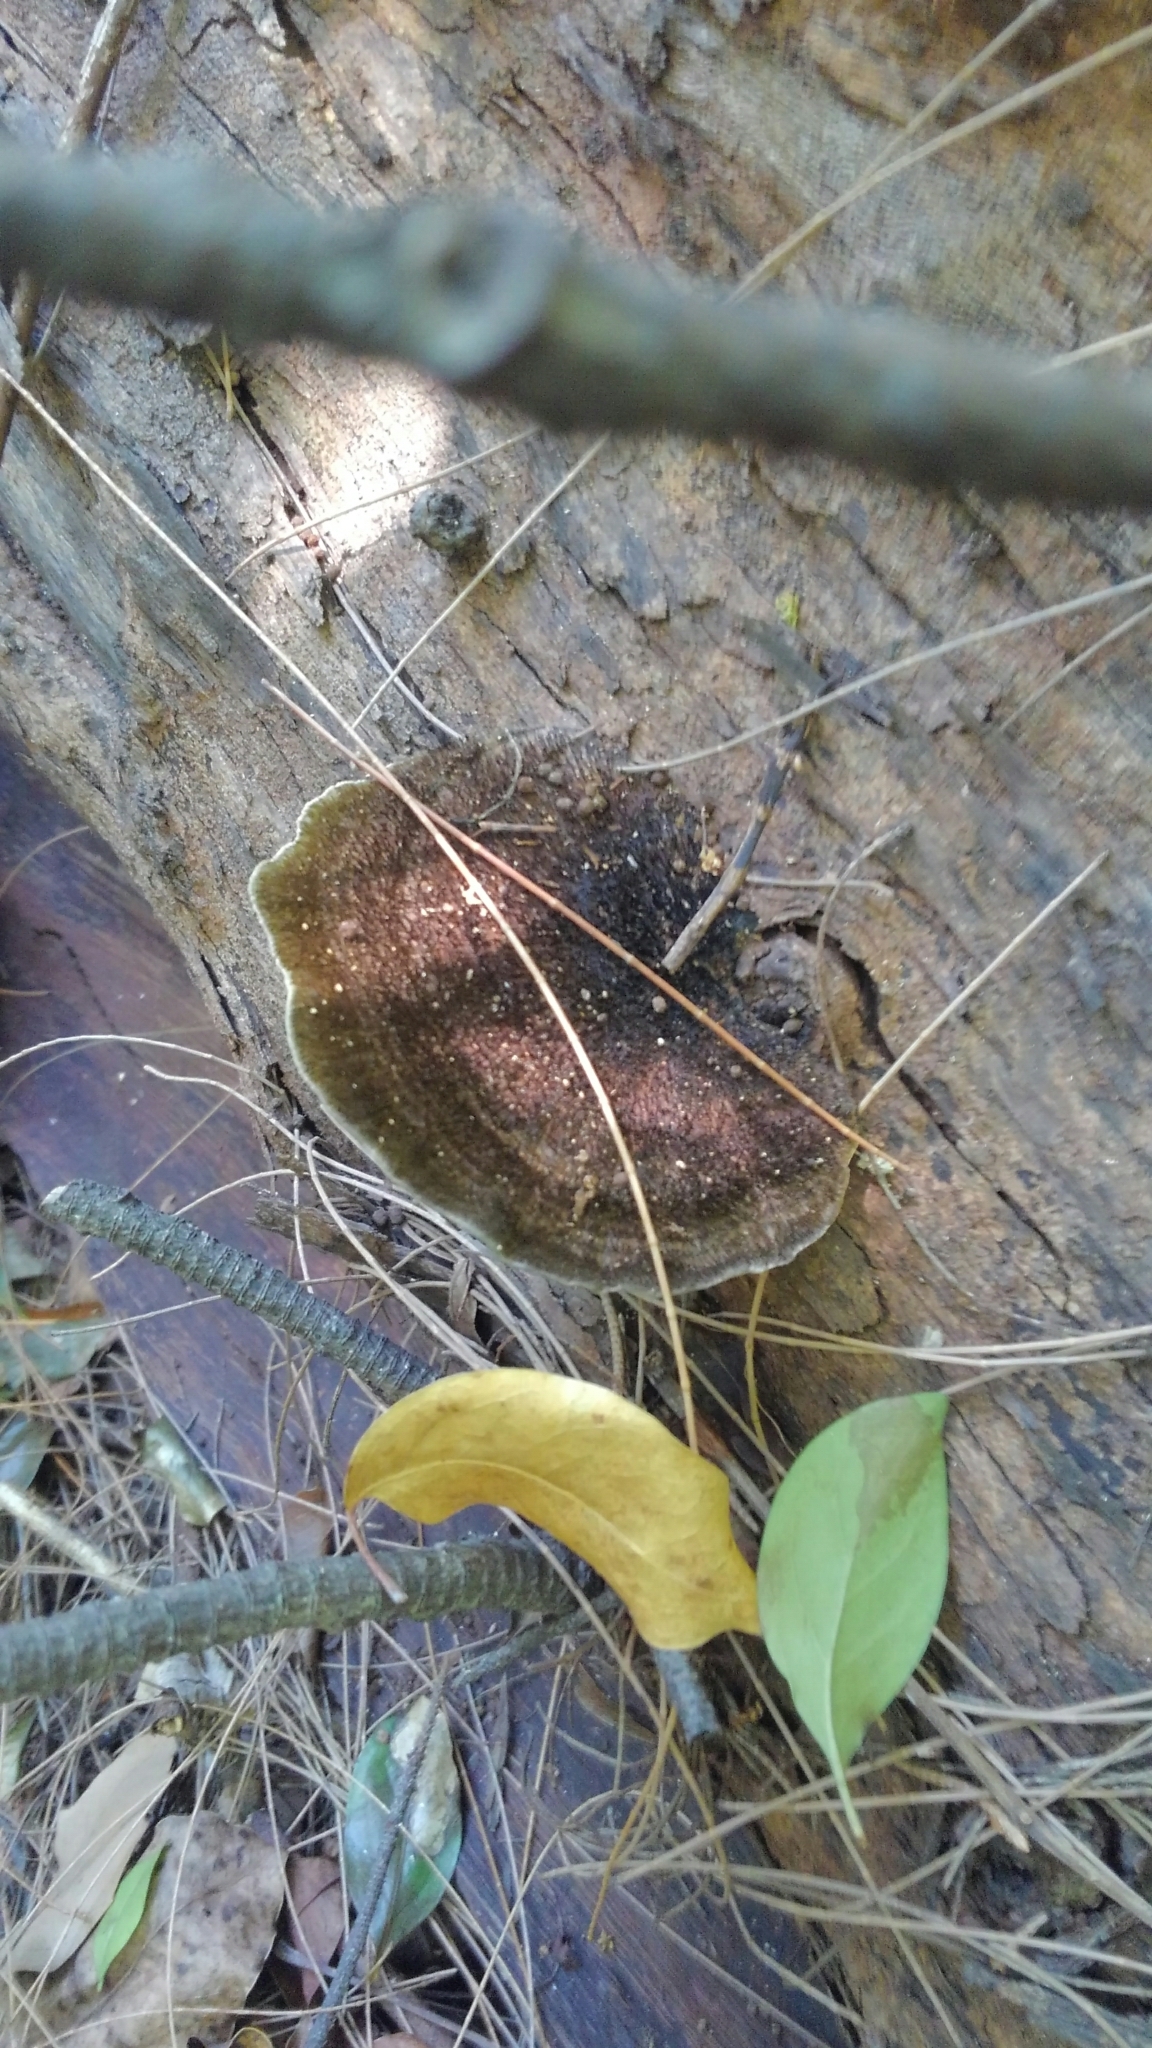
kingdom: Fungi
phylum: Basidiomycota
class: Agaricomycetes
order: Polyporales
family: Cerrenaceae
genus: Cerrena
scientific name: Cerrena hydnoides
